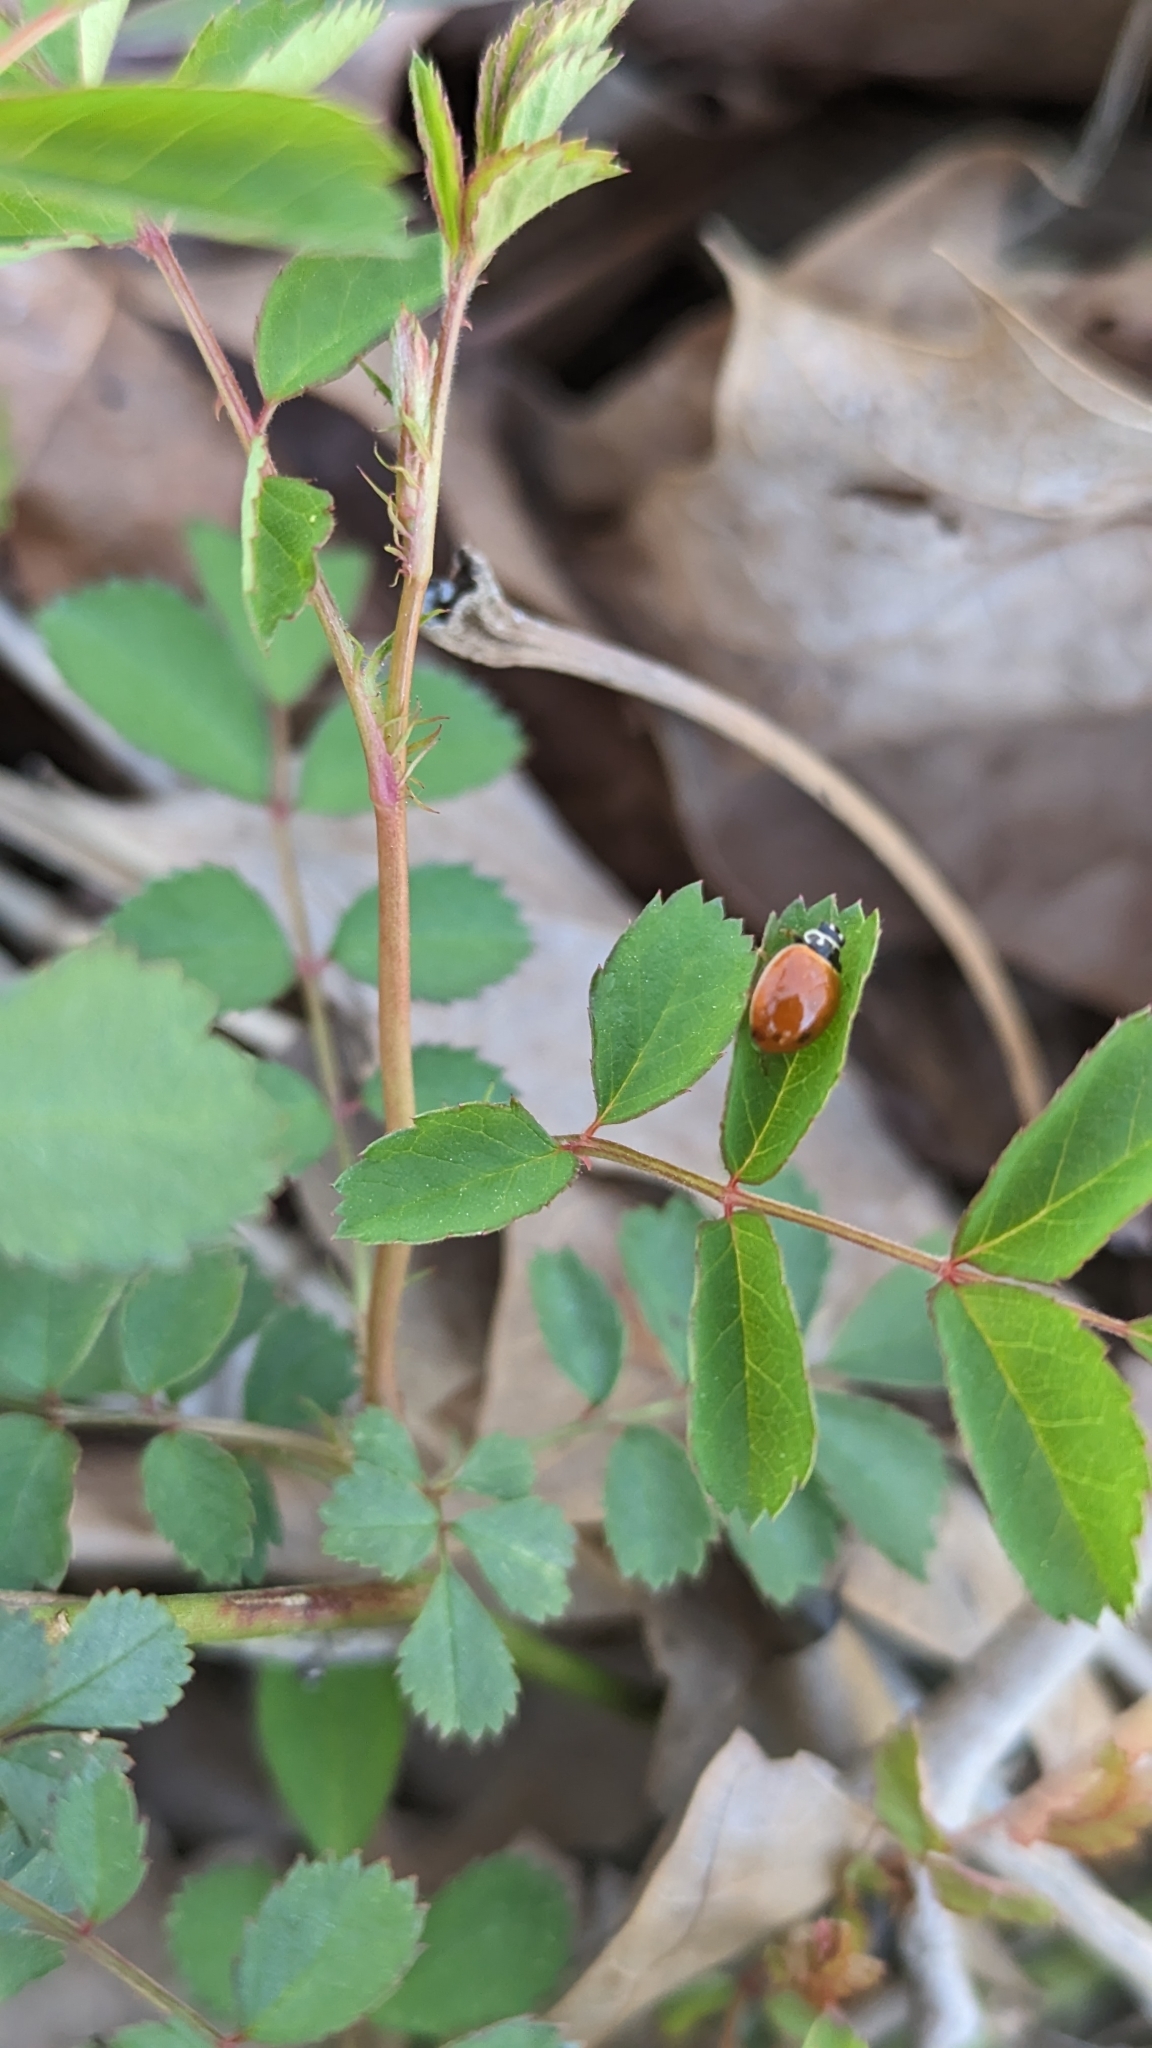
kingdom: Animalia
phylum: Arthropoda
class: Insecta
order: Coleoptera
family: Coccinellidae
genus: Cycloneda
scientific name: Cycloneda munda
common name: Polished lady beetle
